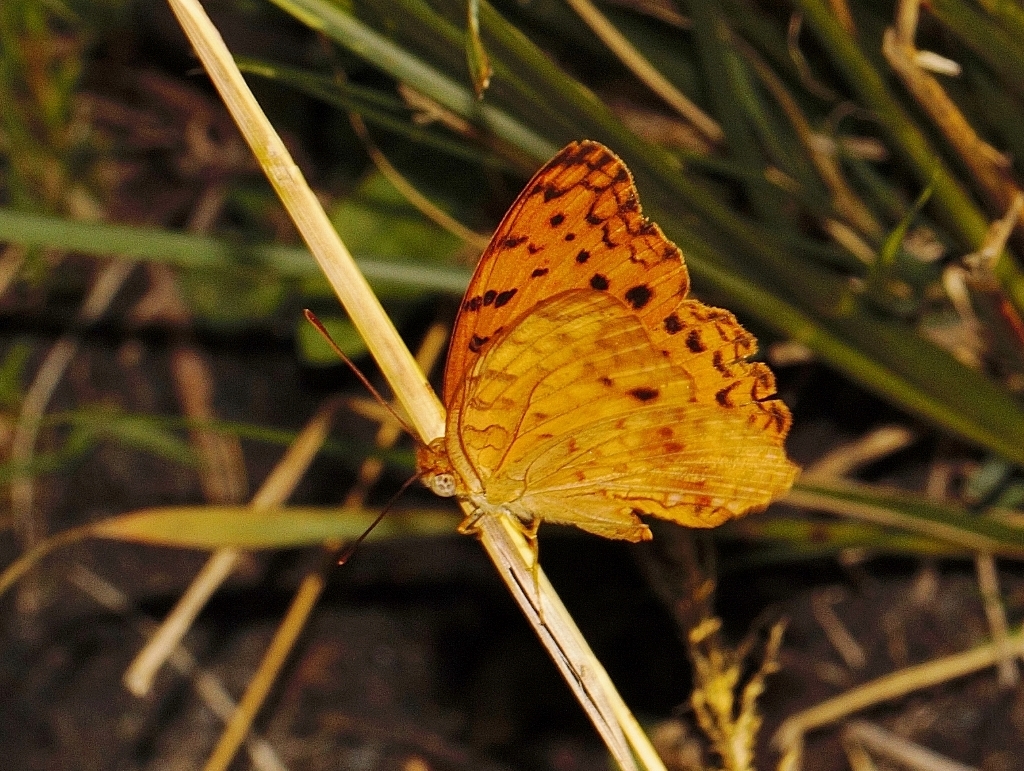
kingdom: Animalia
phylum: Arthropoda
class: Insecta
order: Lepidoptera
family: Nymphalidae
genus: Phalanta
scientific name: Phalanta phalantha
